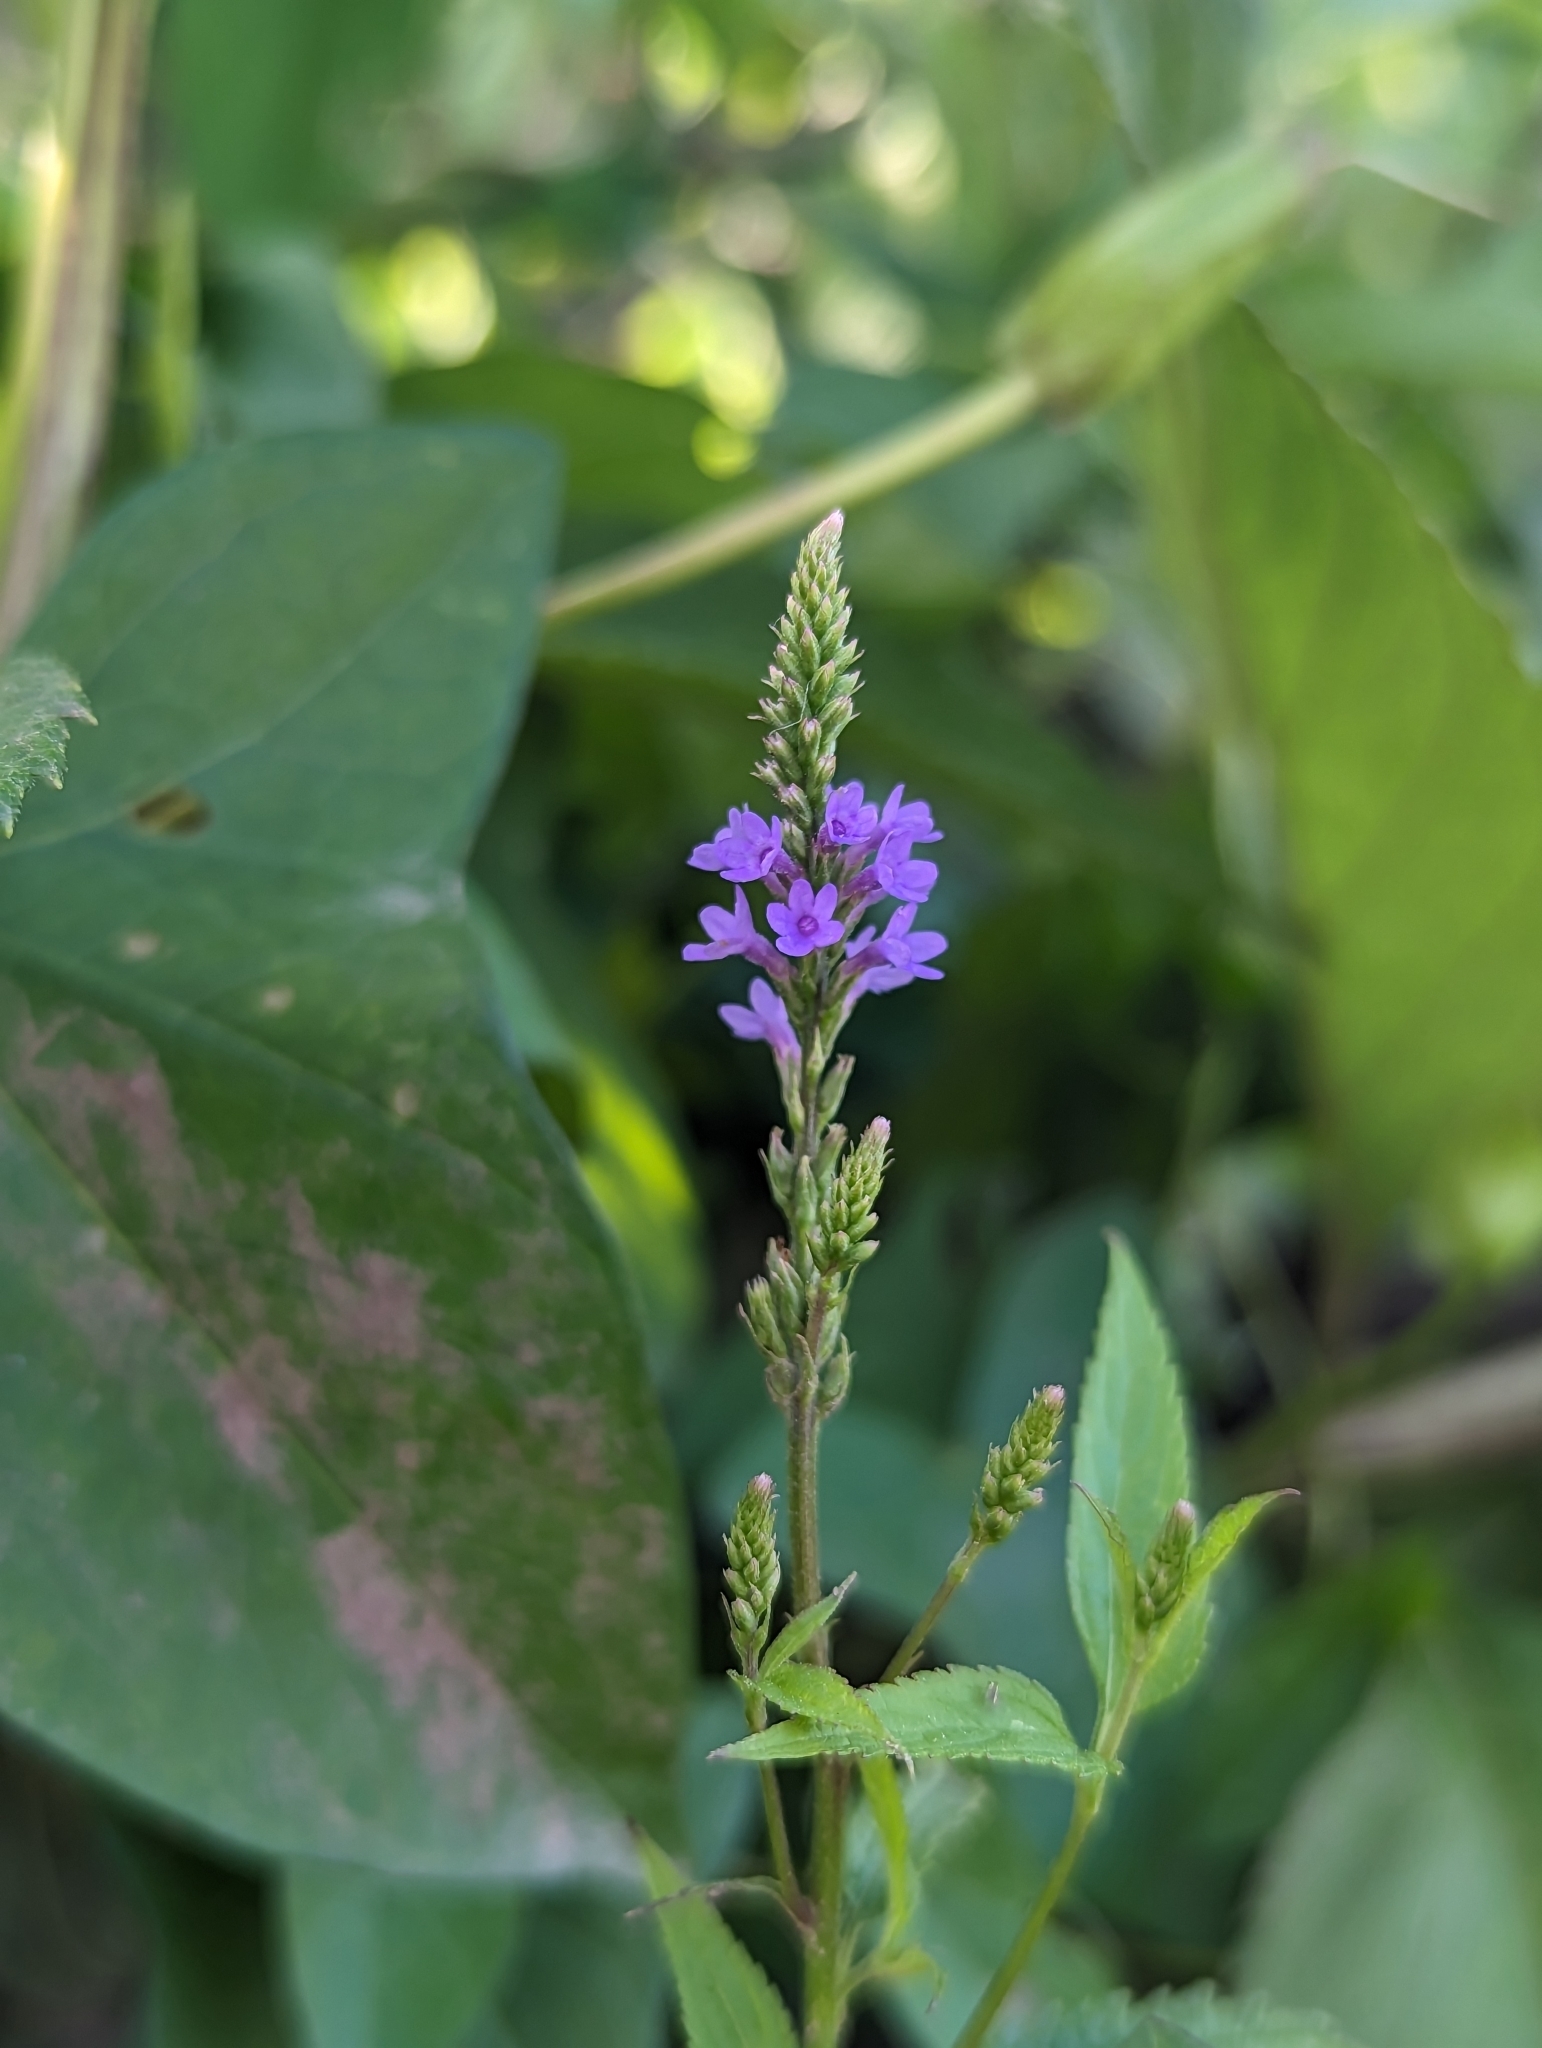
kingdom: Plantae
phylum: Tracheophyta
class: Magnoliopsida
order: Lamiales
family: Verbenaceae
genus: Verbena
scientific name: Verbena hastata
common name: American blue vervain
